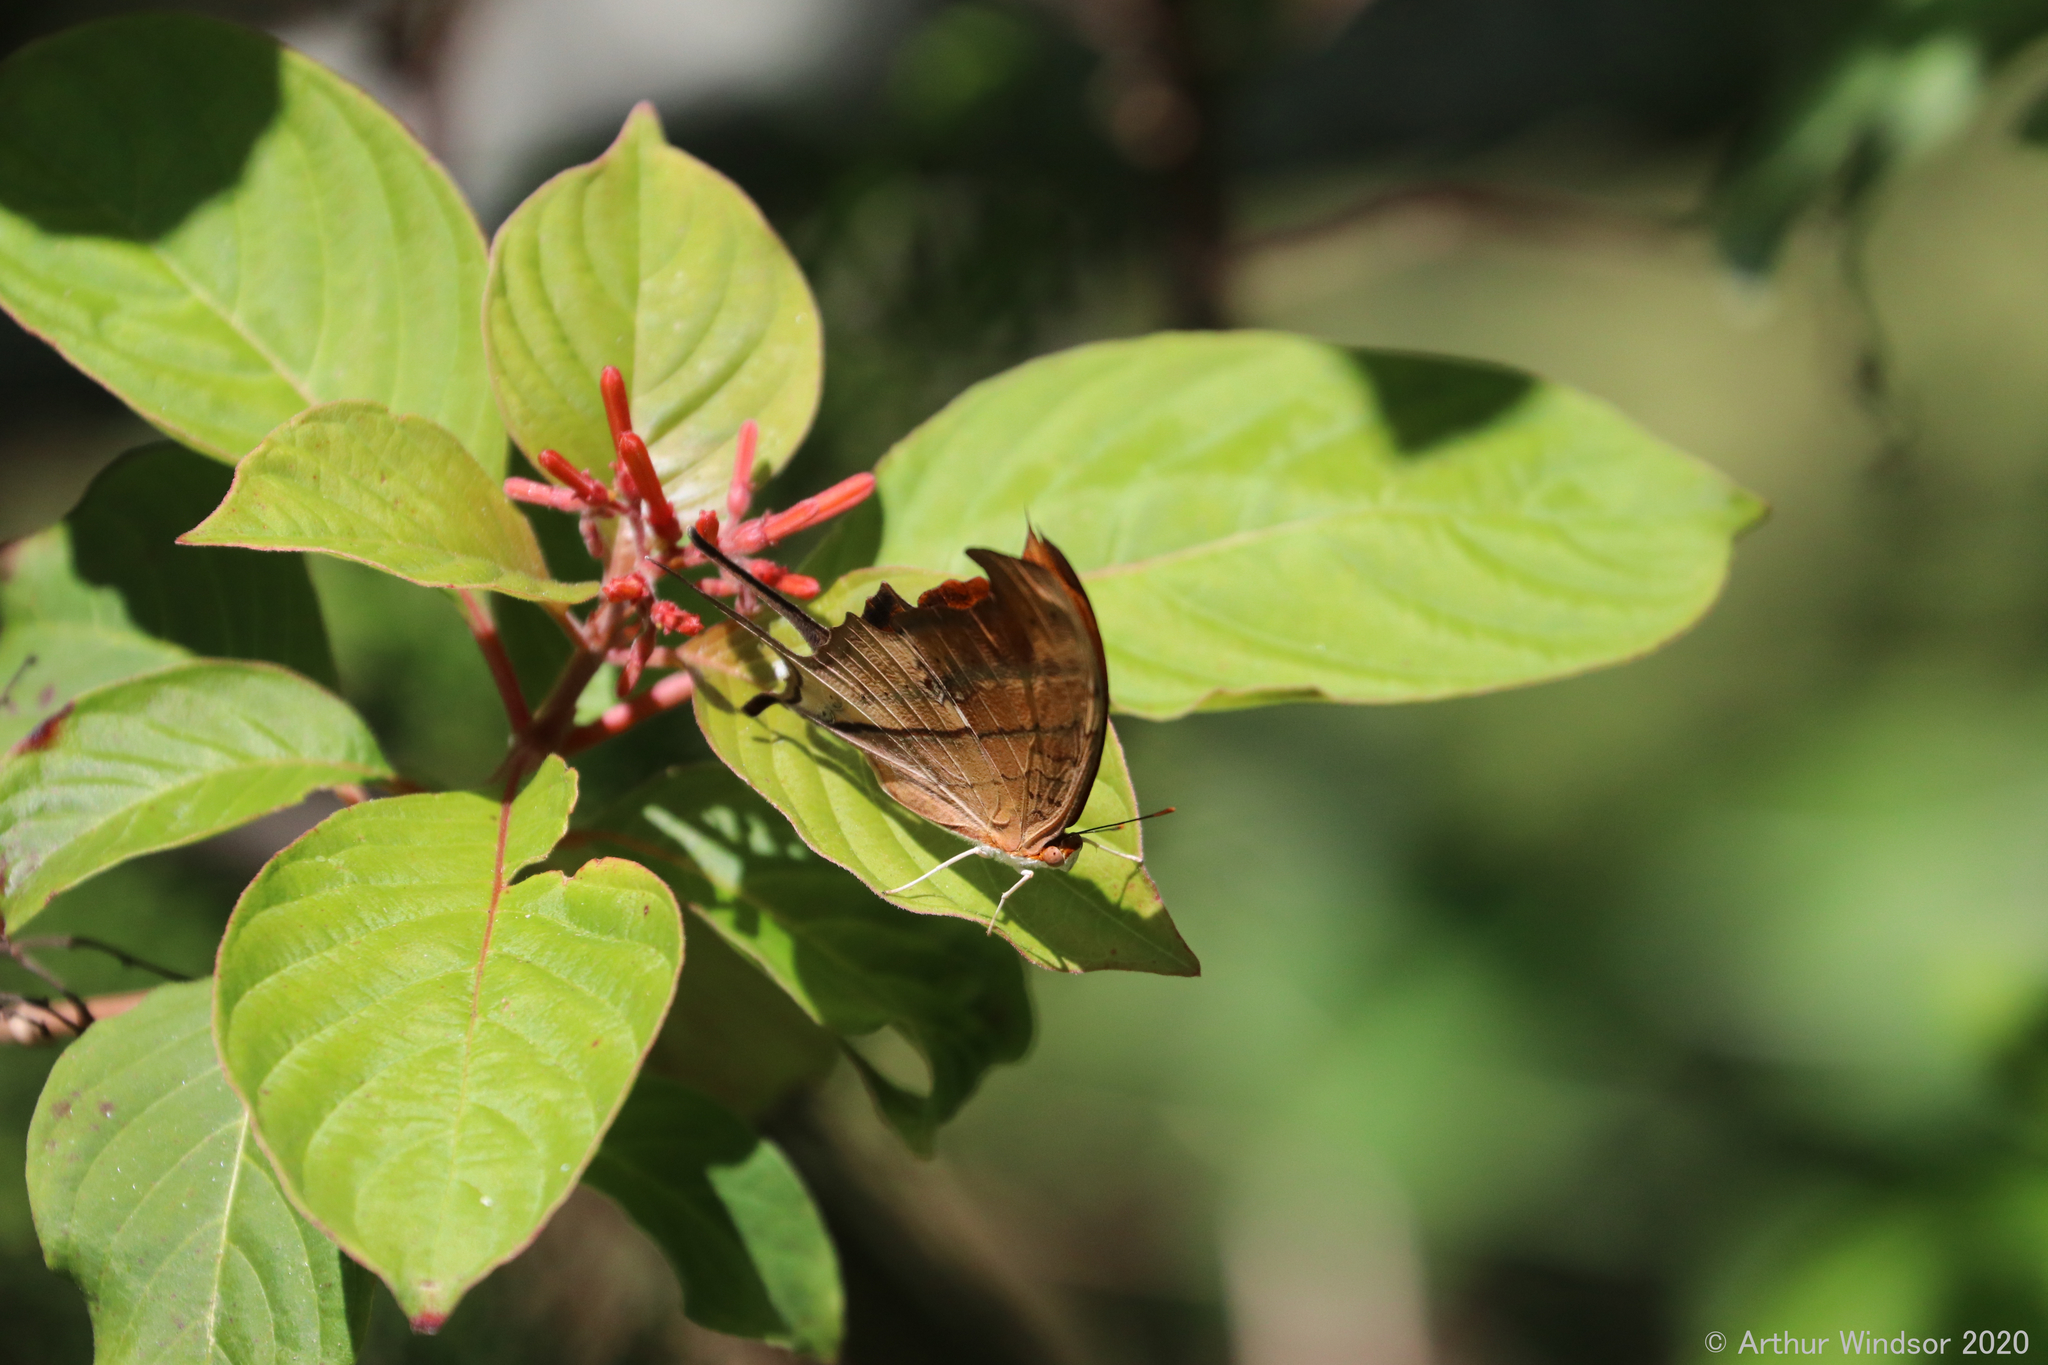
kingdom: Animalia
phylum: Arthropoda
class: Insecta
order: Lepidoptera
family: Nymphalidae
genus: Marpesia
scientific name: Marpesia petreus
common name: Red dagger wing
